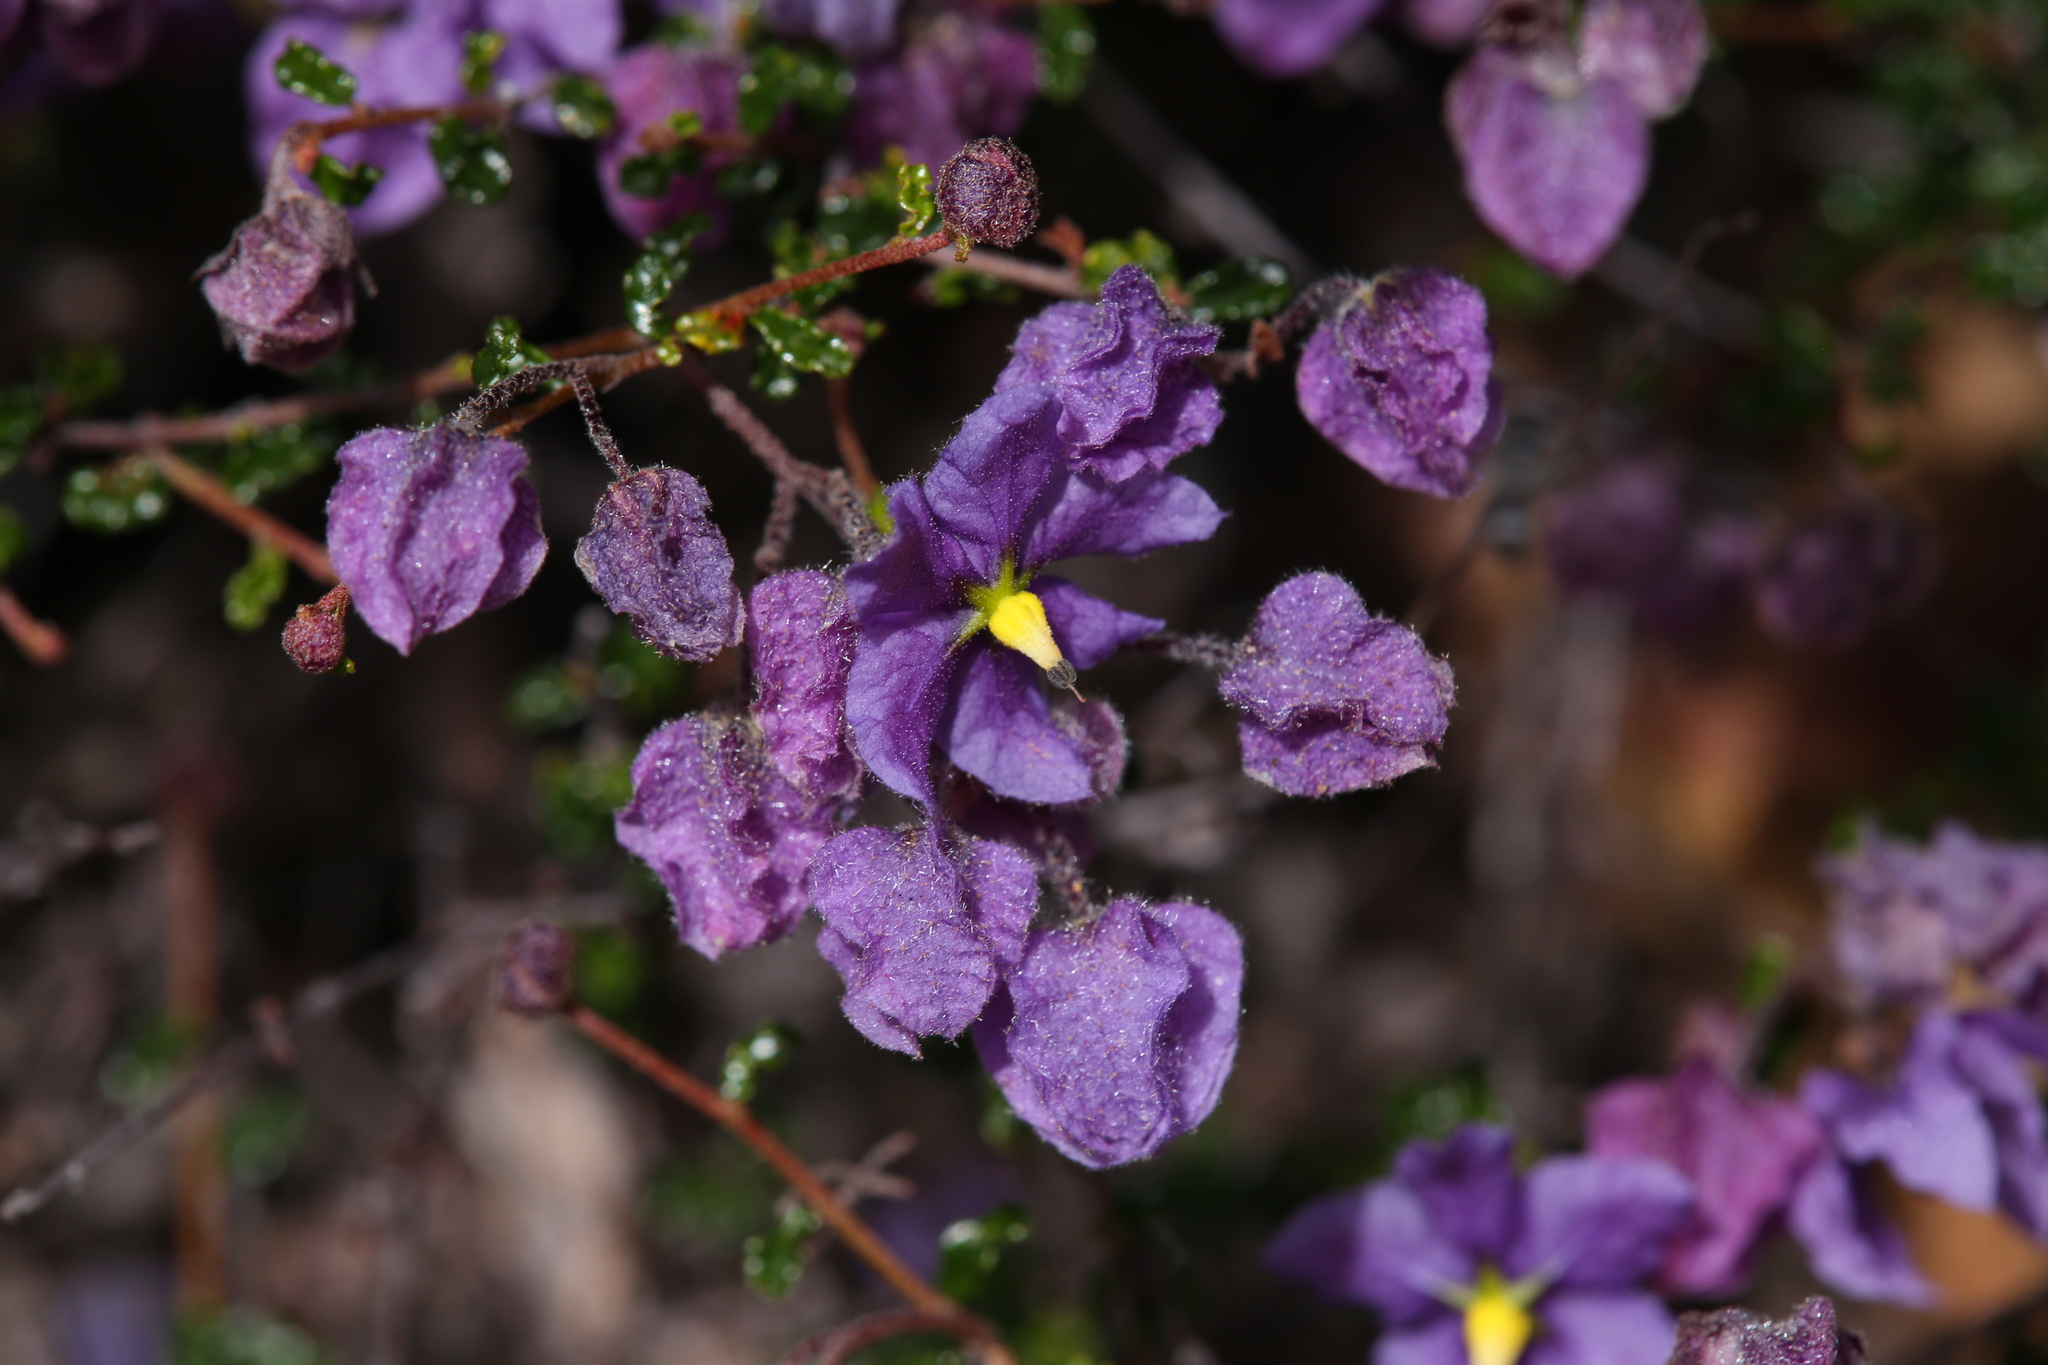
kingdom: Plantae
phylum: Tracheophyta
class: Magnoliopsida
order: Malvales
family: Malvaceae
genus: Seringia
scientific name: Seringia saxatilis
